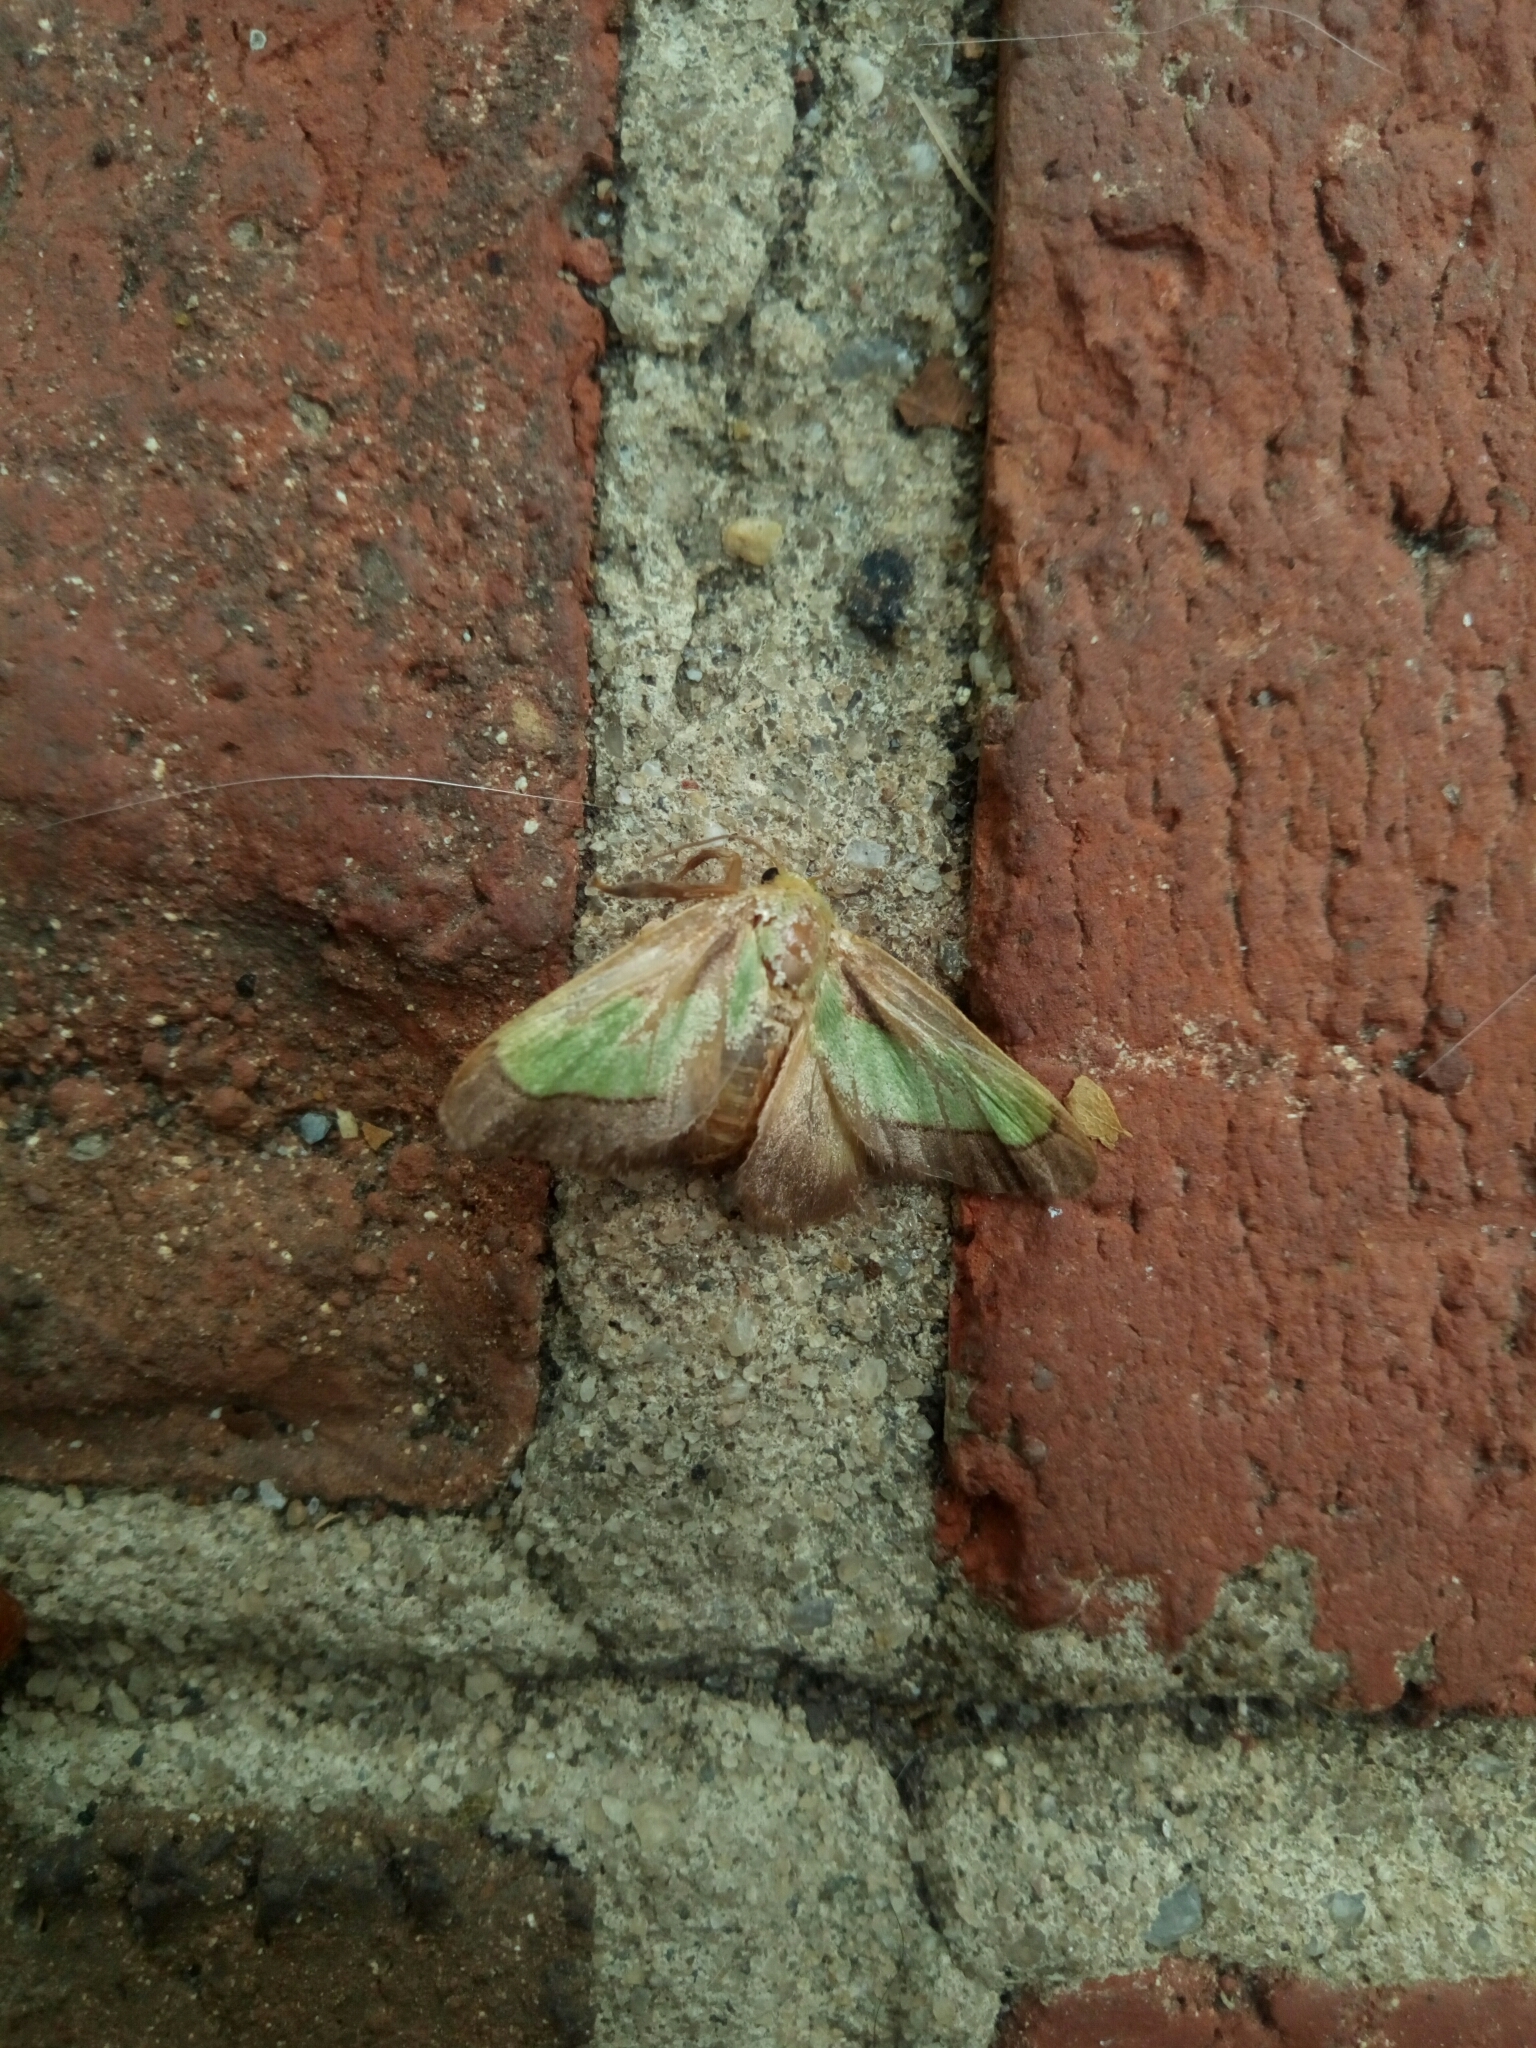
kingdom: Animalia
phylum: Arthropoda
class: Insecta
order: Lepidoptera
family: Limacodidae
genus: Parasa
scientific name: Parasa chloris
